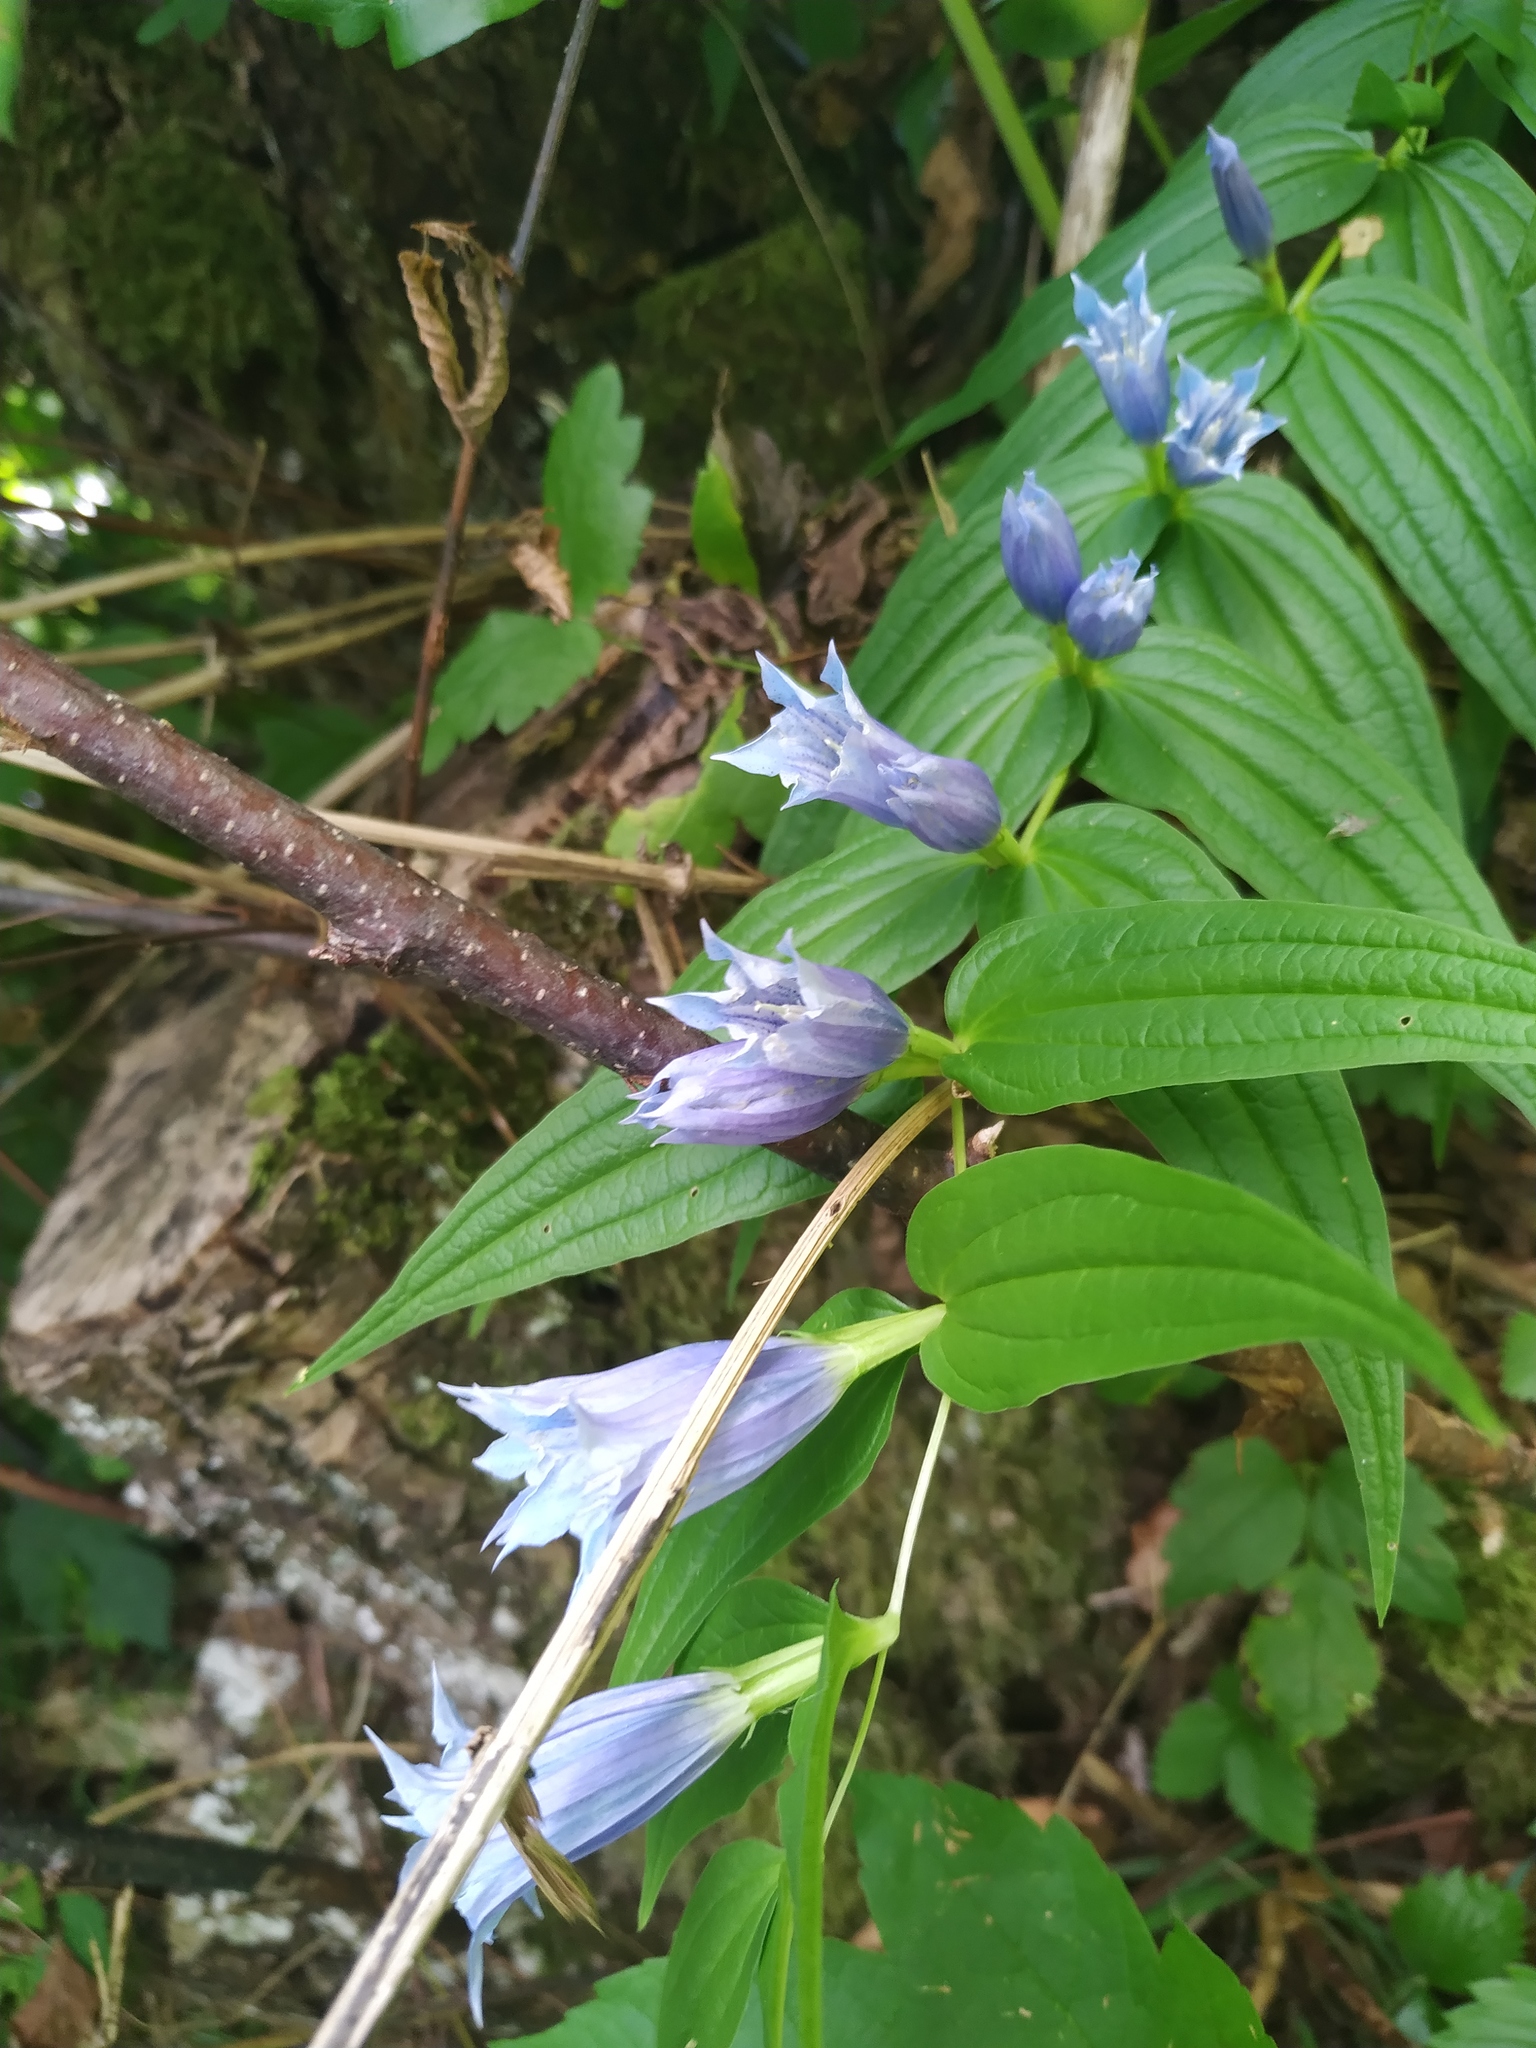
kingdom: Plantae
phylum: Tracheophyta
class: Magnoliopsida
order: Gentianales
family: Gentianaceae
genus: Gentiana
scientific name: Gentiana asclepiadea
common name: Willow gentian
